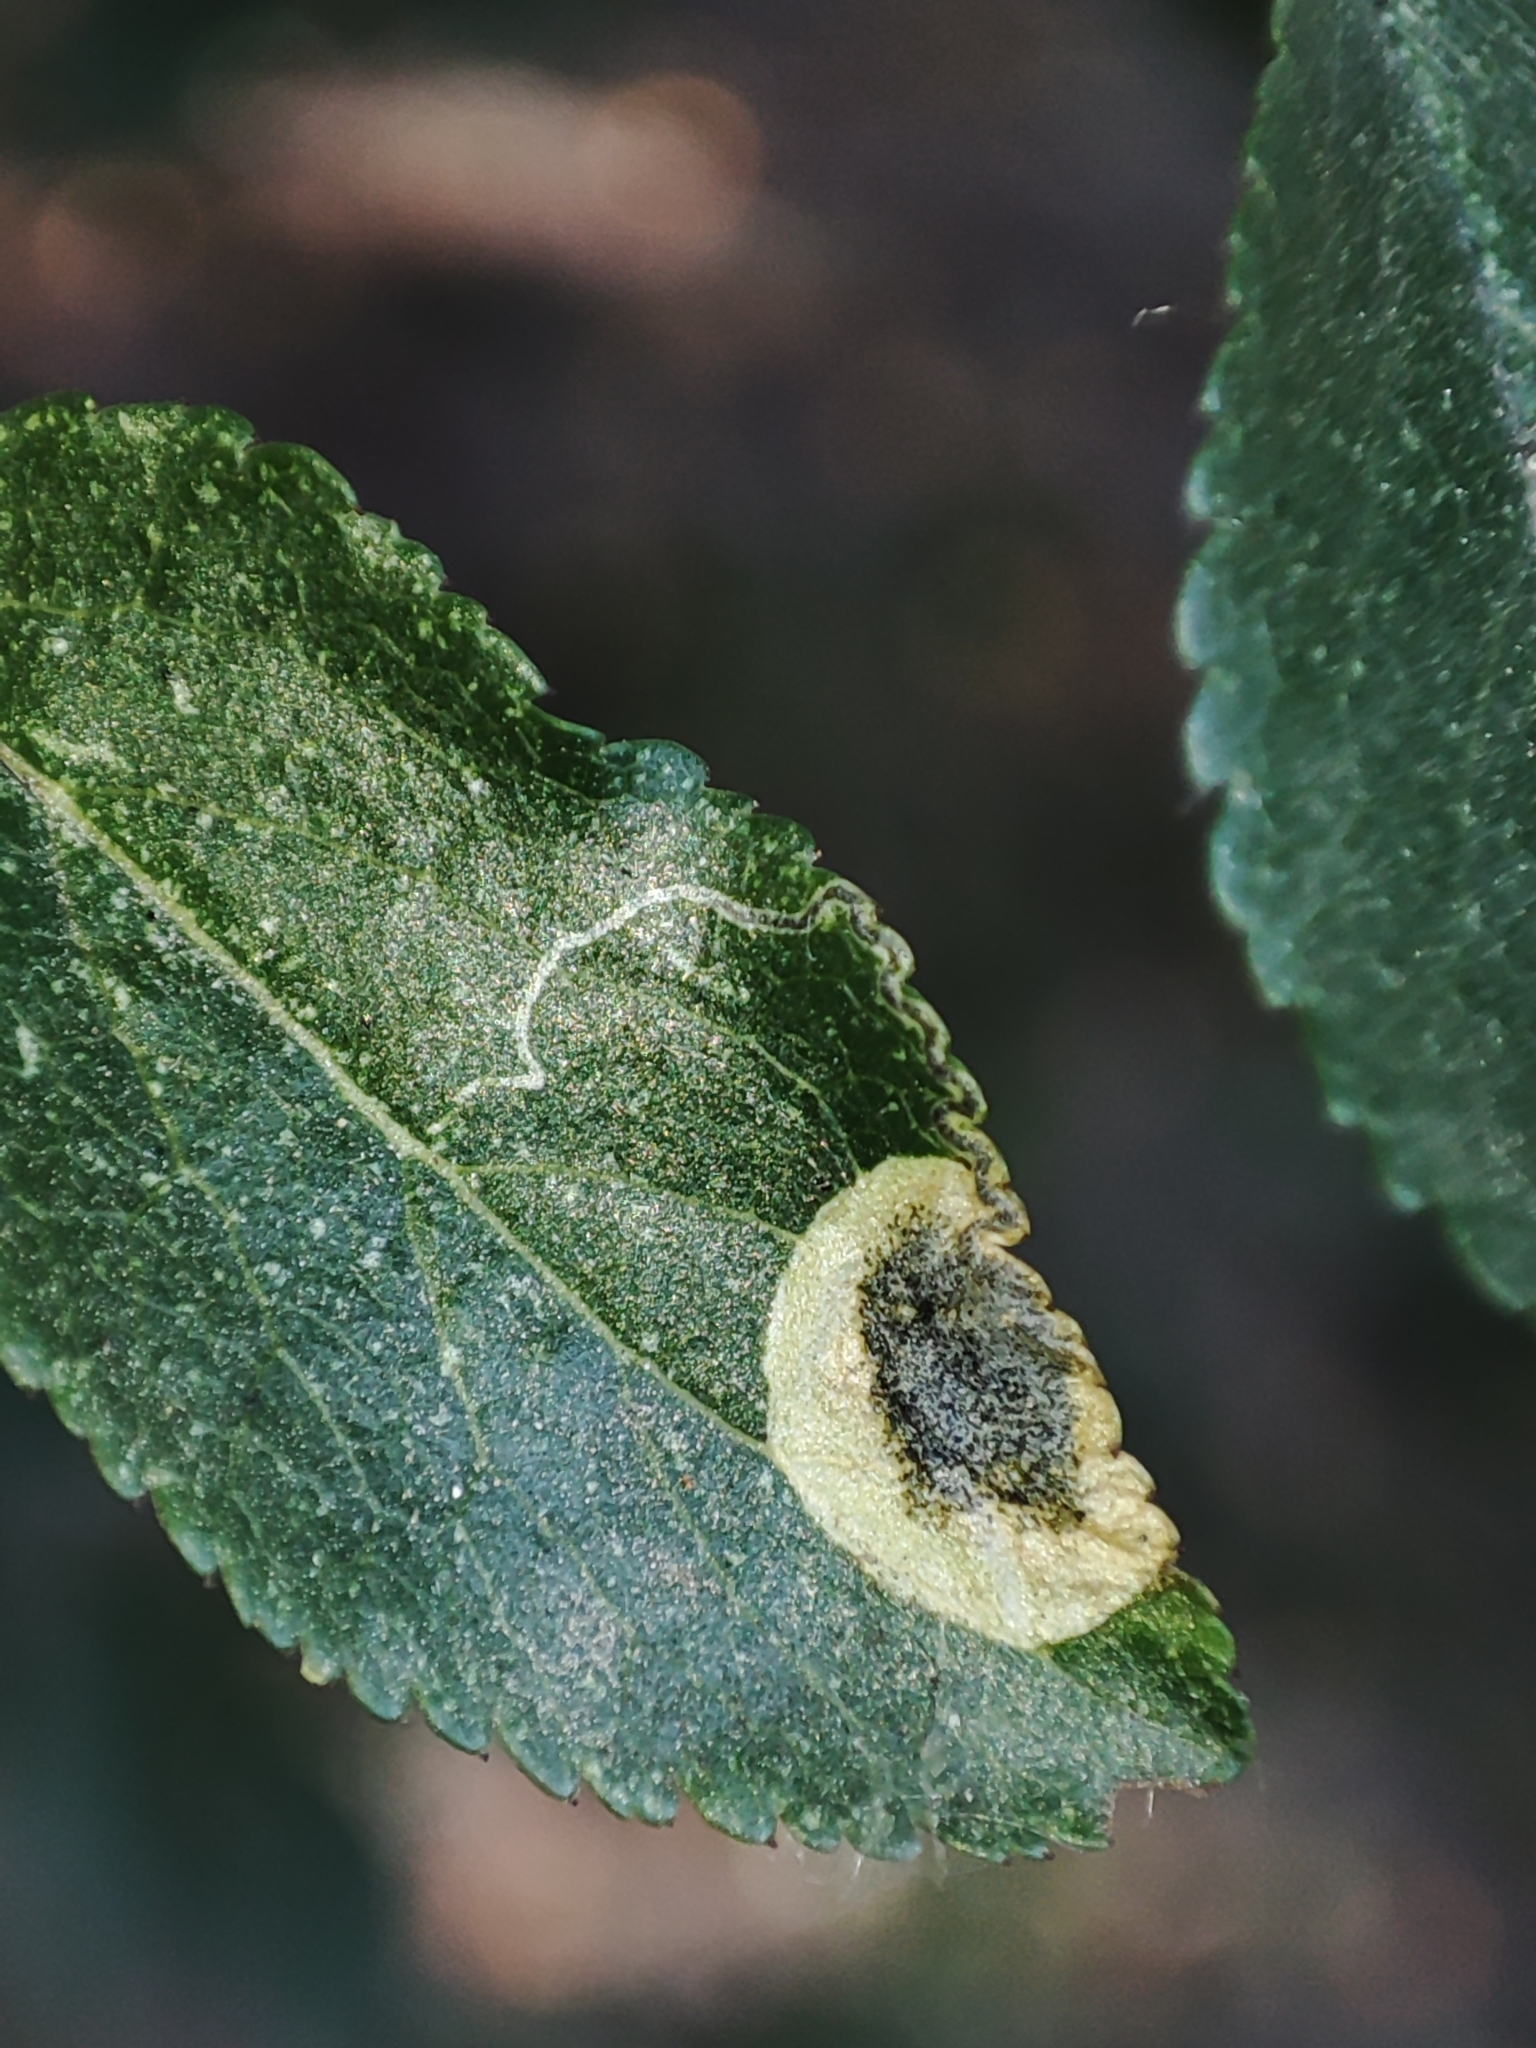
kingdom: Animalia
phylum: Arthropoda
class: Insecta
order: Lepidoptera
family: Nepticulidae
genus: Stigmella
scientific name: Stigmella plagicolella
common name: Scrubland pigmy
